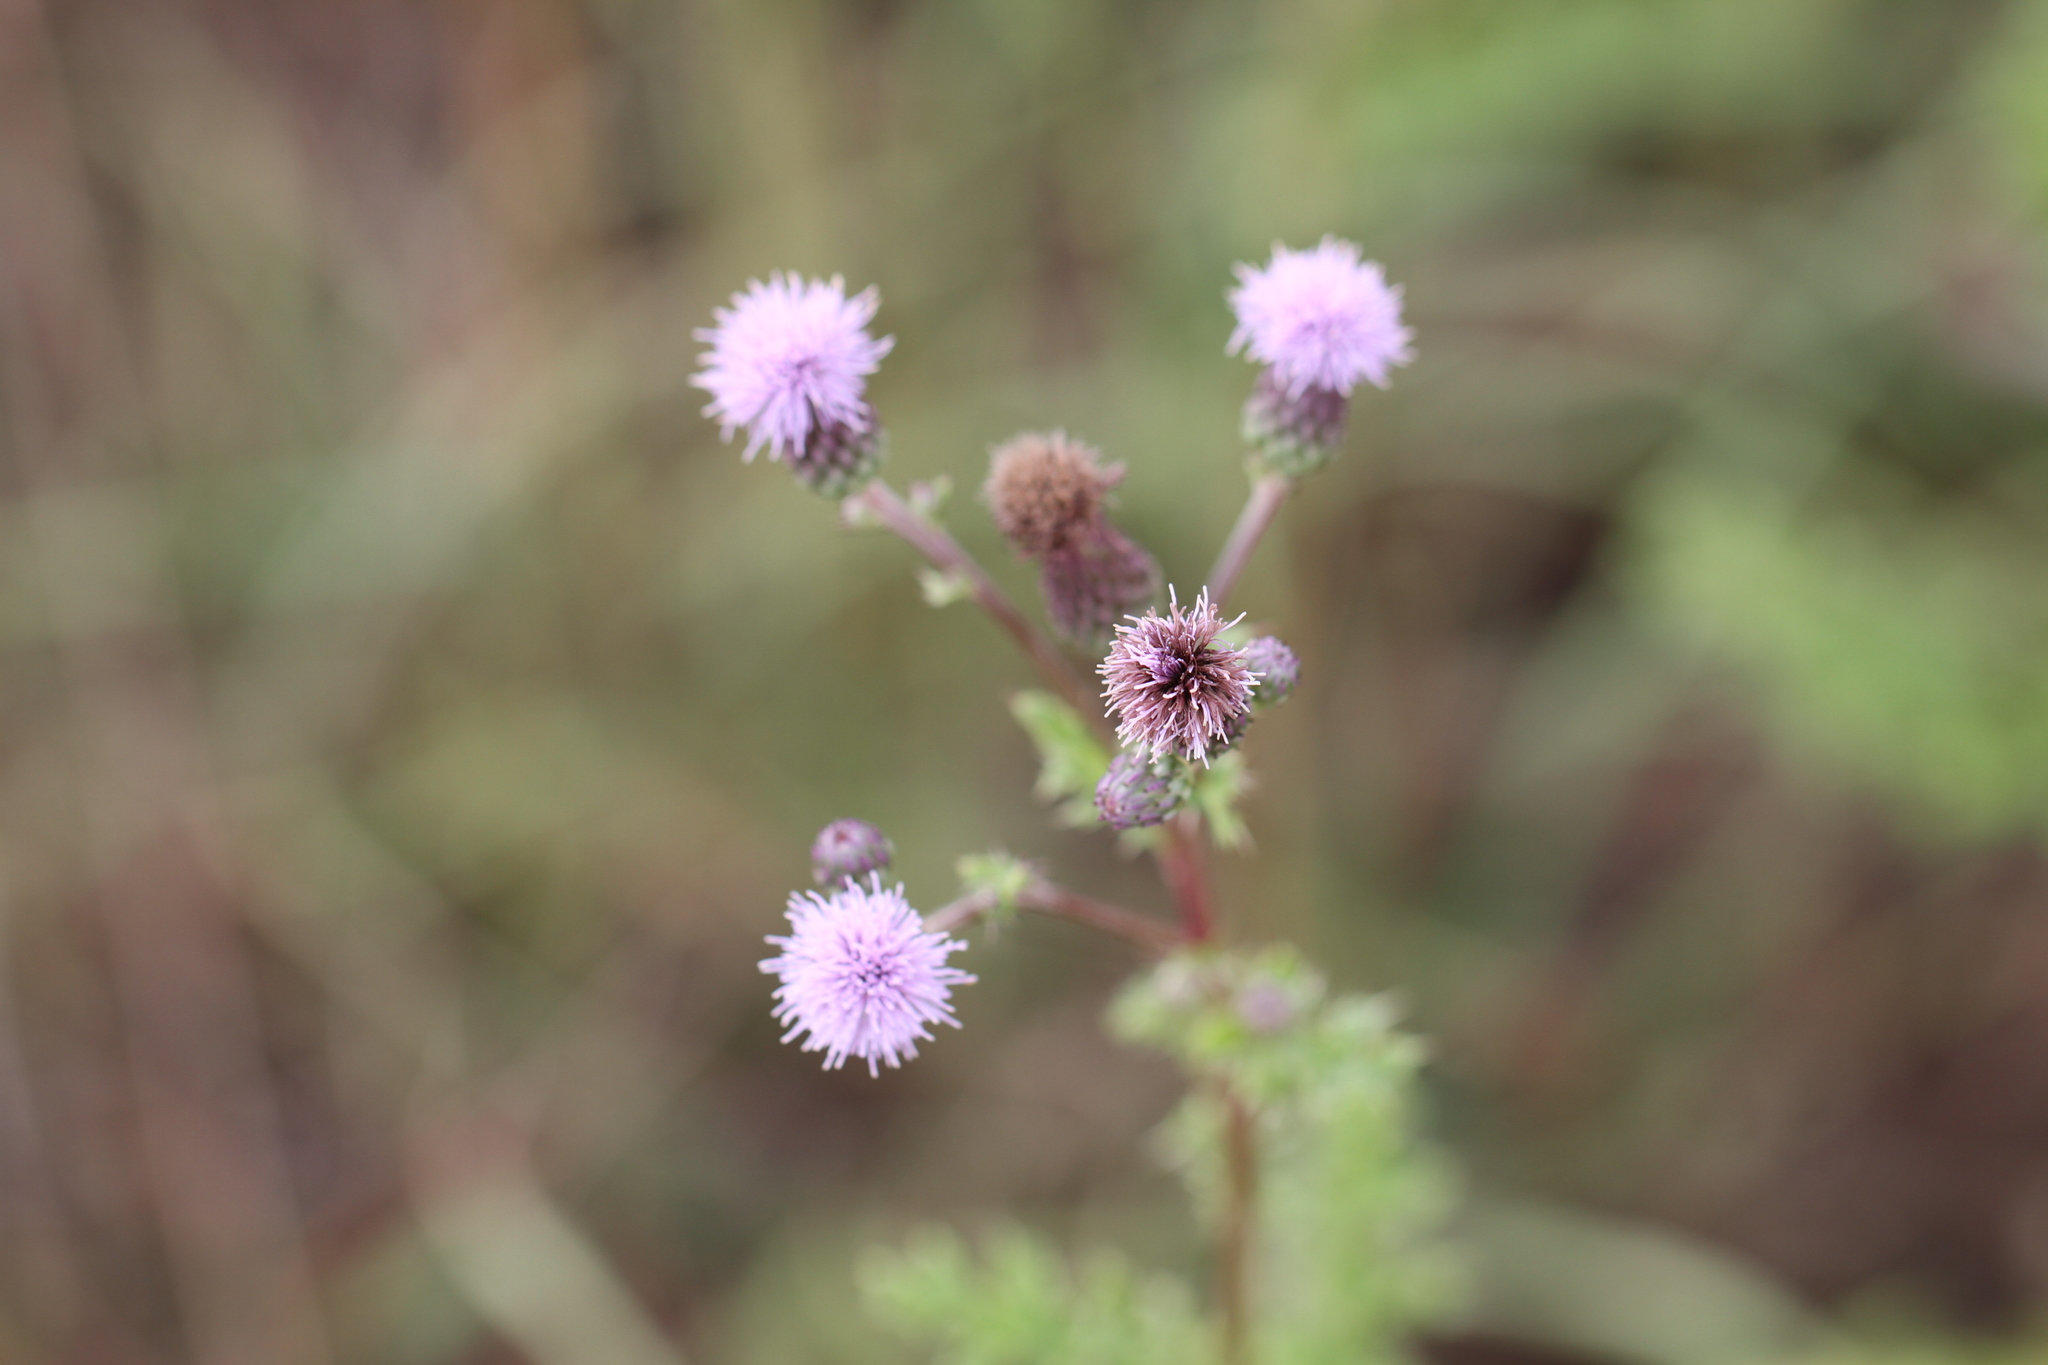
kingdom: Plantae
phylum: Tracheophyta
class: Magnoliopsida
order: Asterales
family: Asteraceae
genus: Cirsium
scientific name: Cirsium arvense
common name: Creeping thistle
